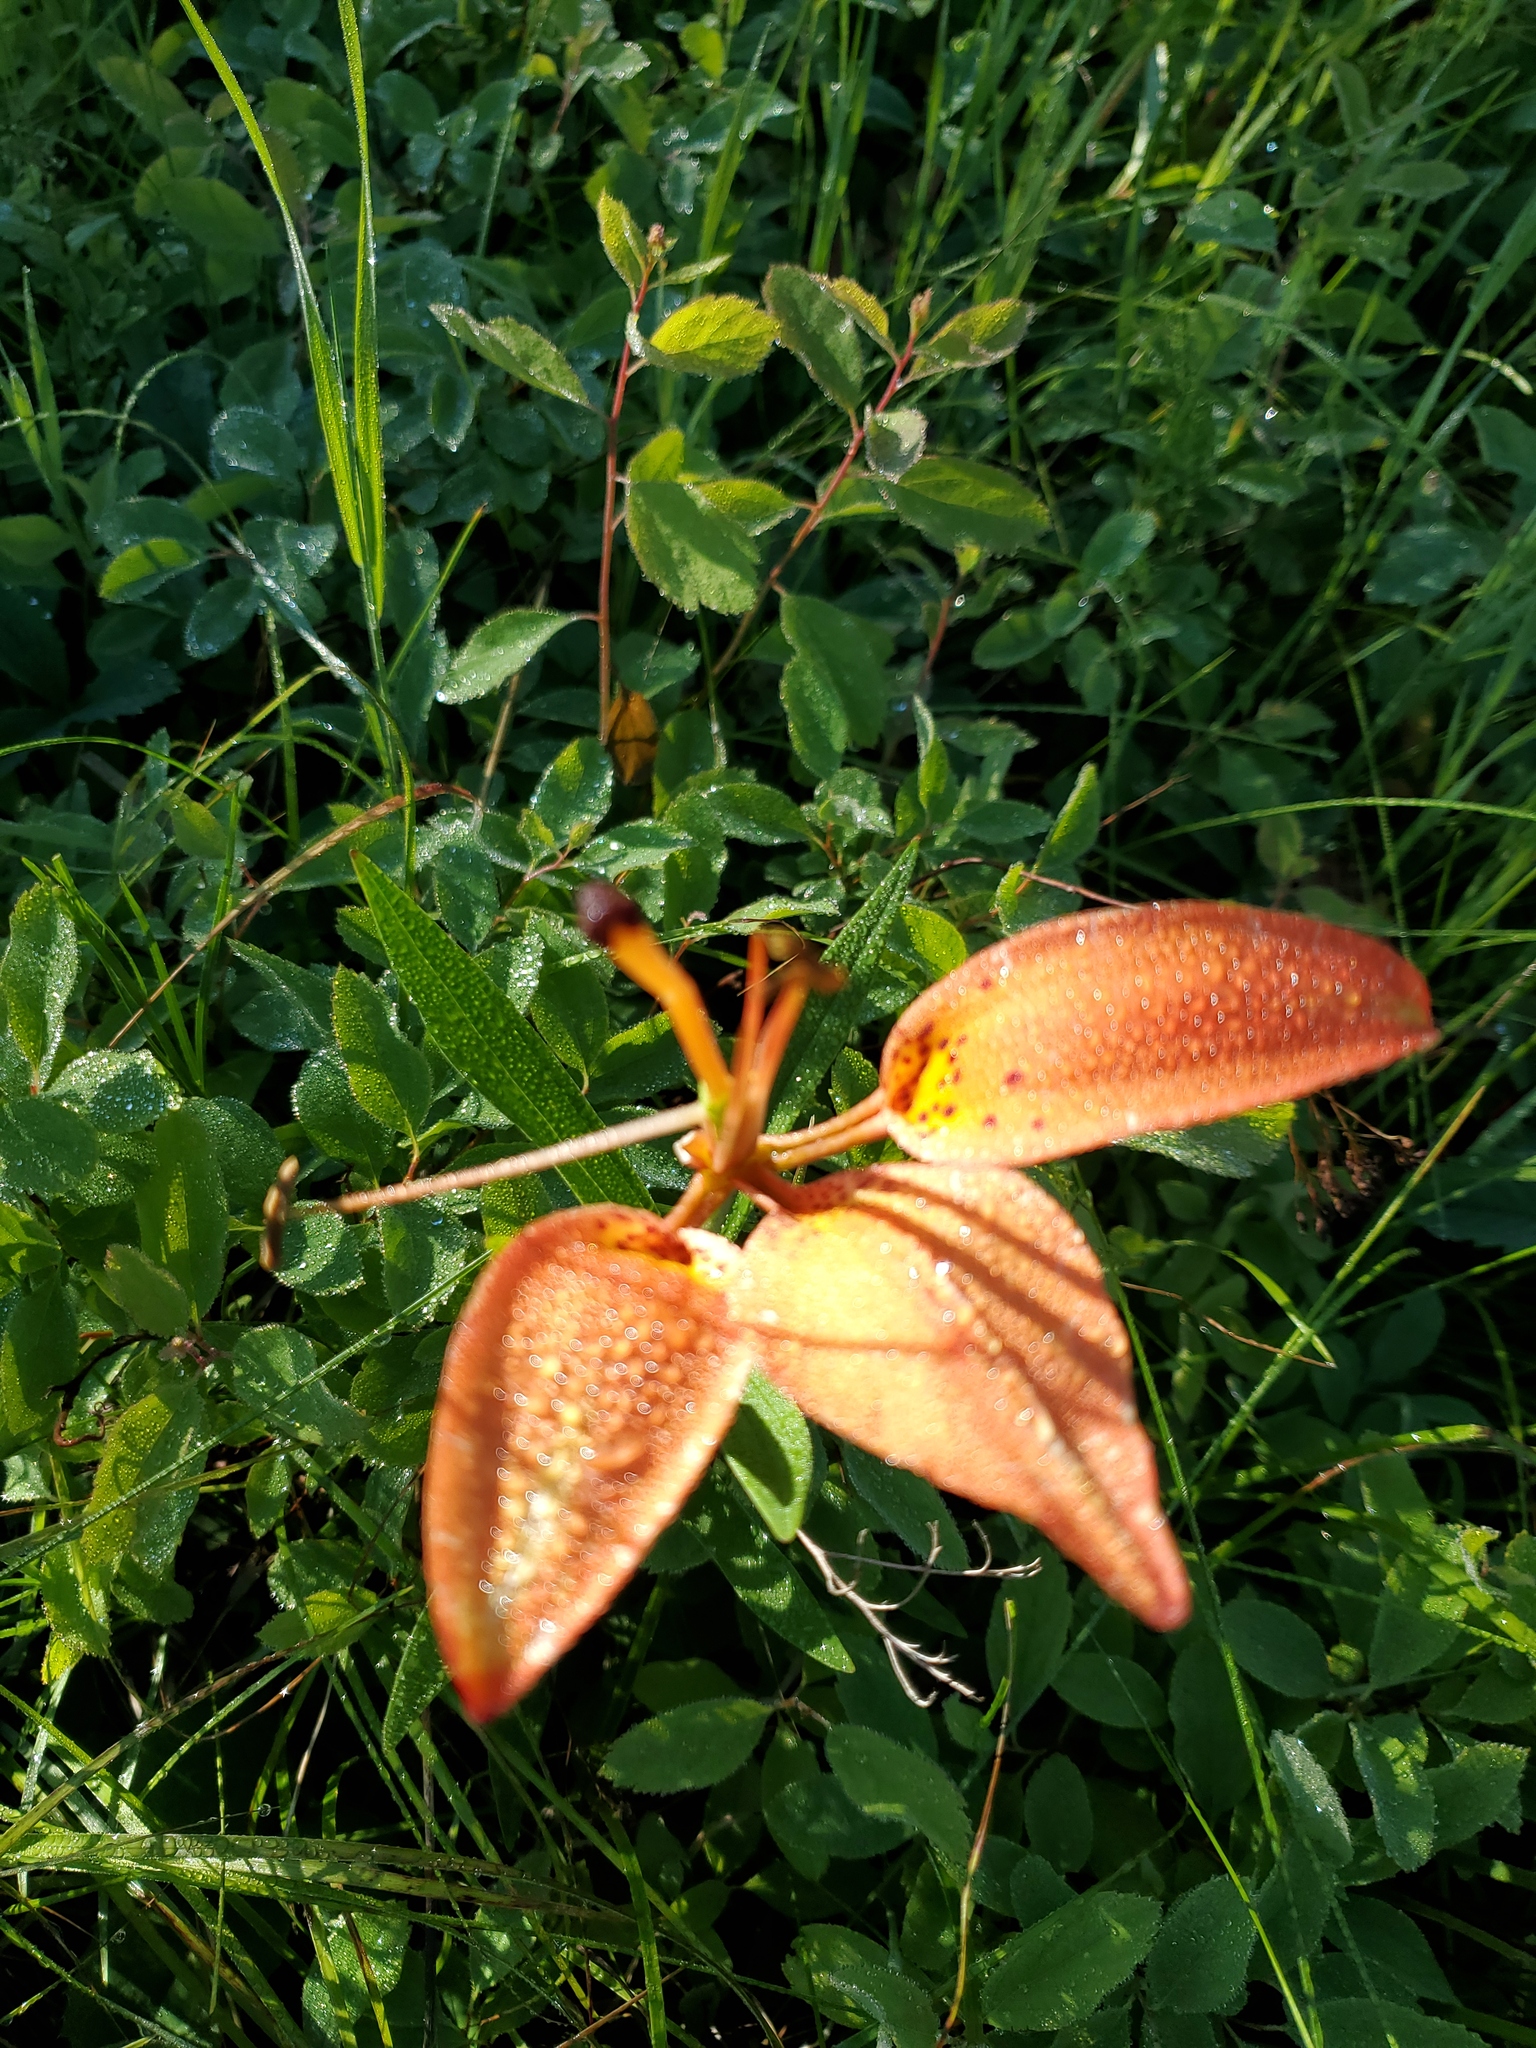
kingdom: Plantae
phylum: Tracheophyta
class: Liliopsida
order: Liliales
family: Liliaceae
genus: Lilium
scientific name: Lilium philadelphicum
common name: Red lily
